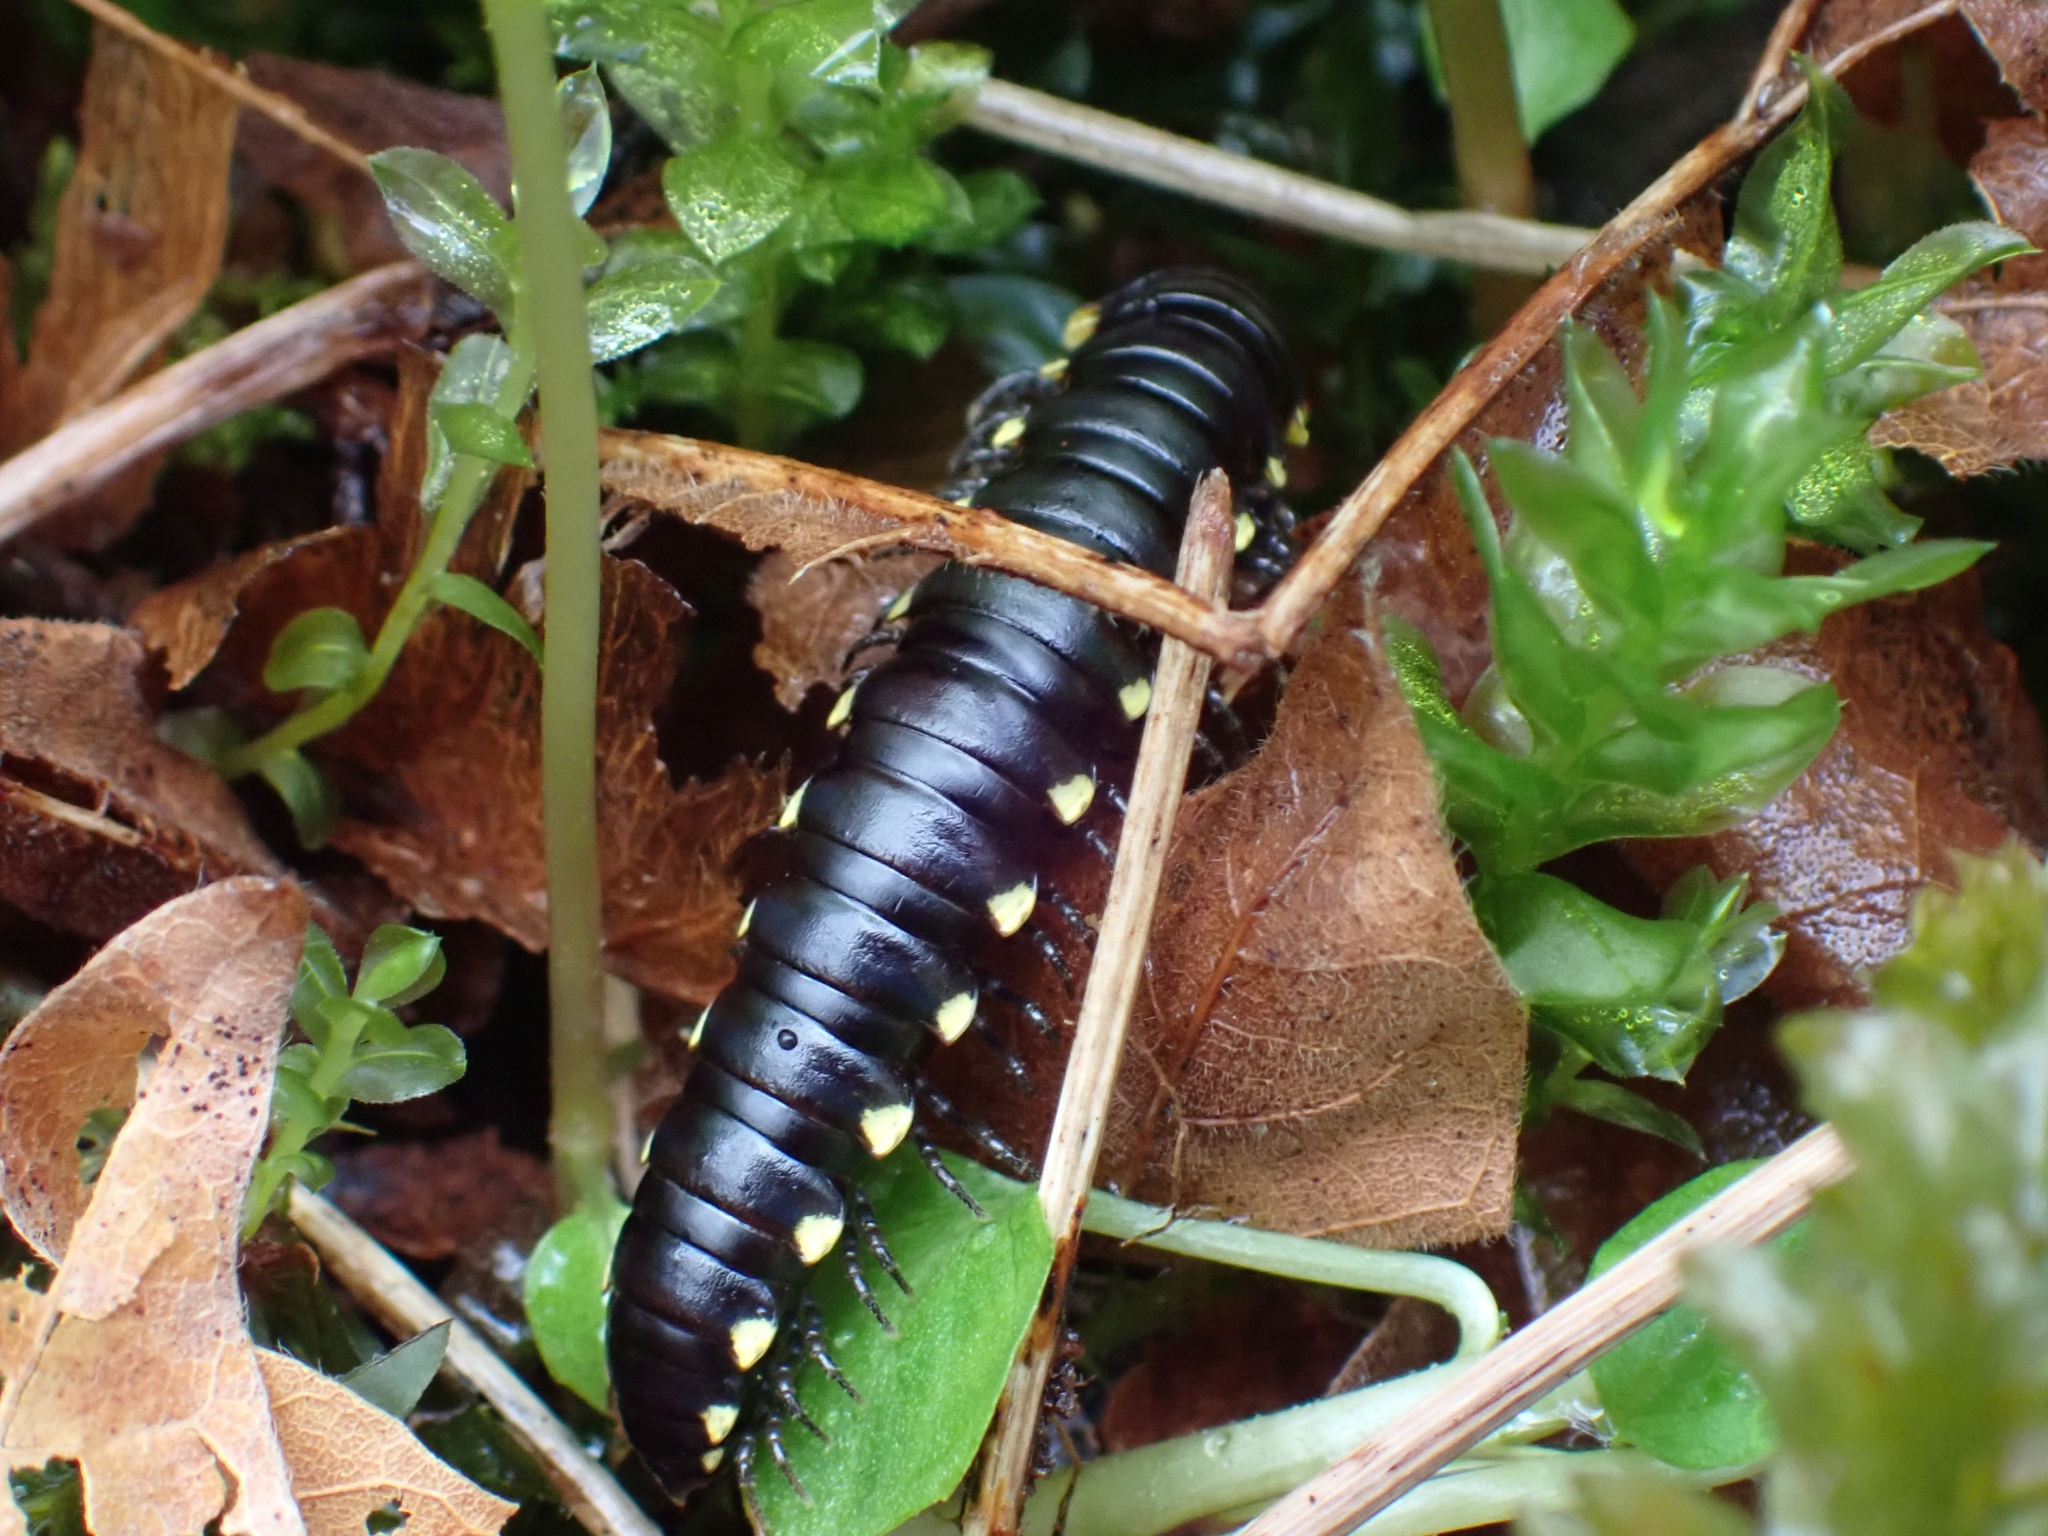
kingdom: Animalia
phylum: Arthropoda
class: Diplopoda
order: Polydesmida
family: Xystodesmidae
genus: Harpaphe
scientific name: Harpaphe haydeniana
